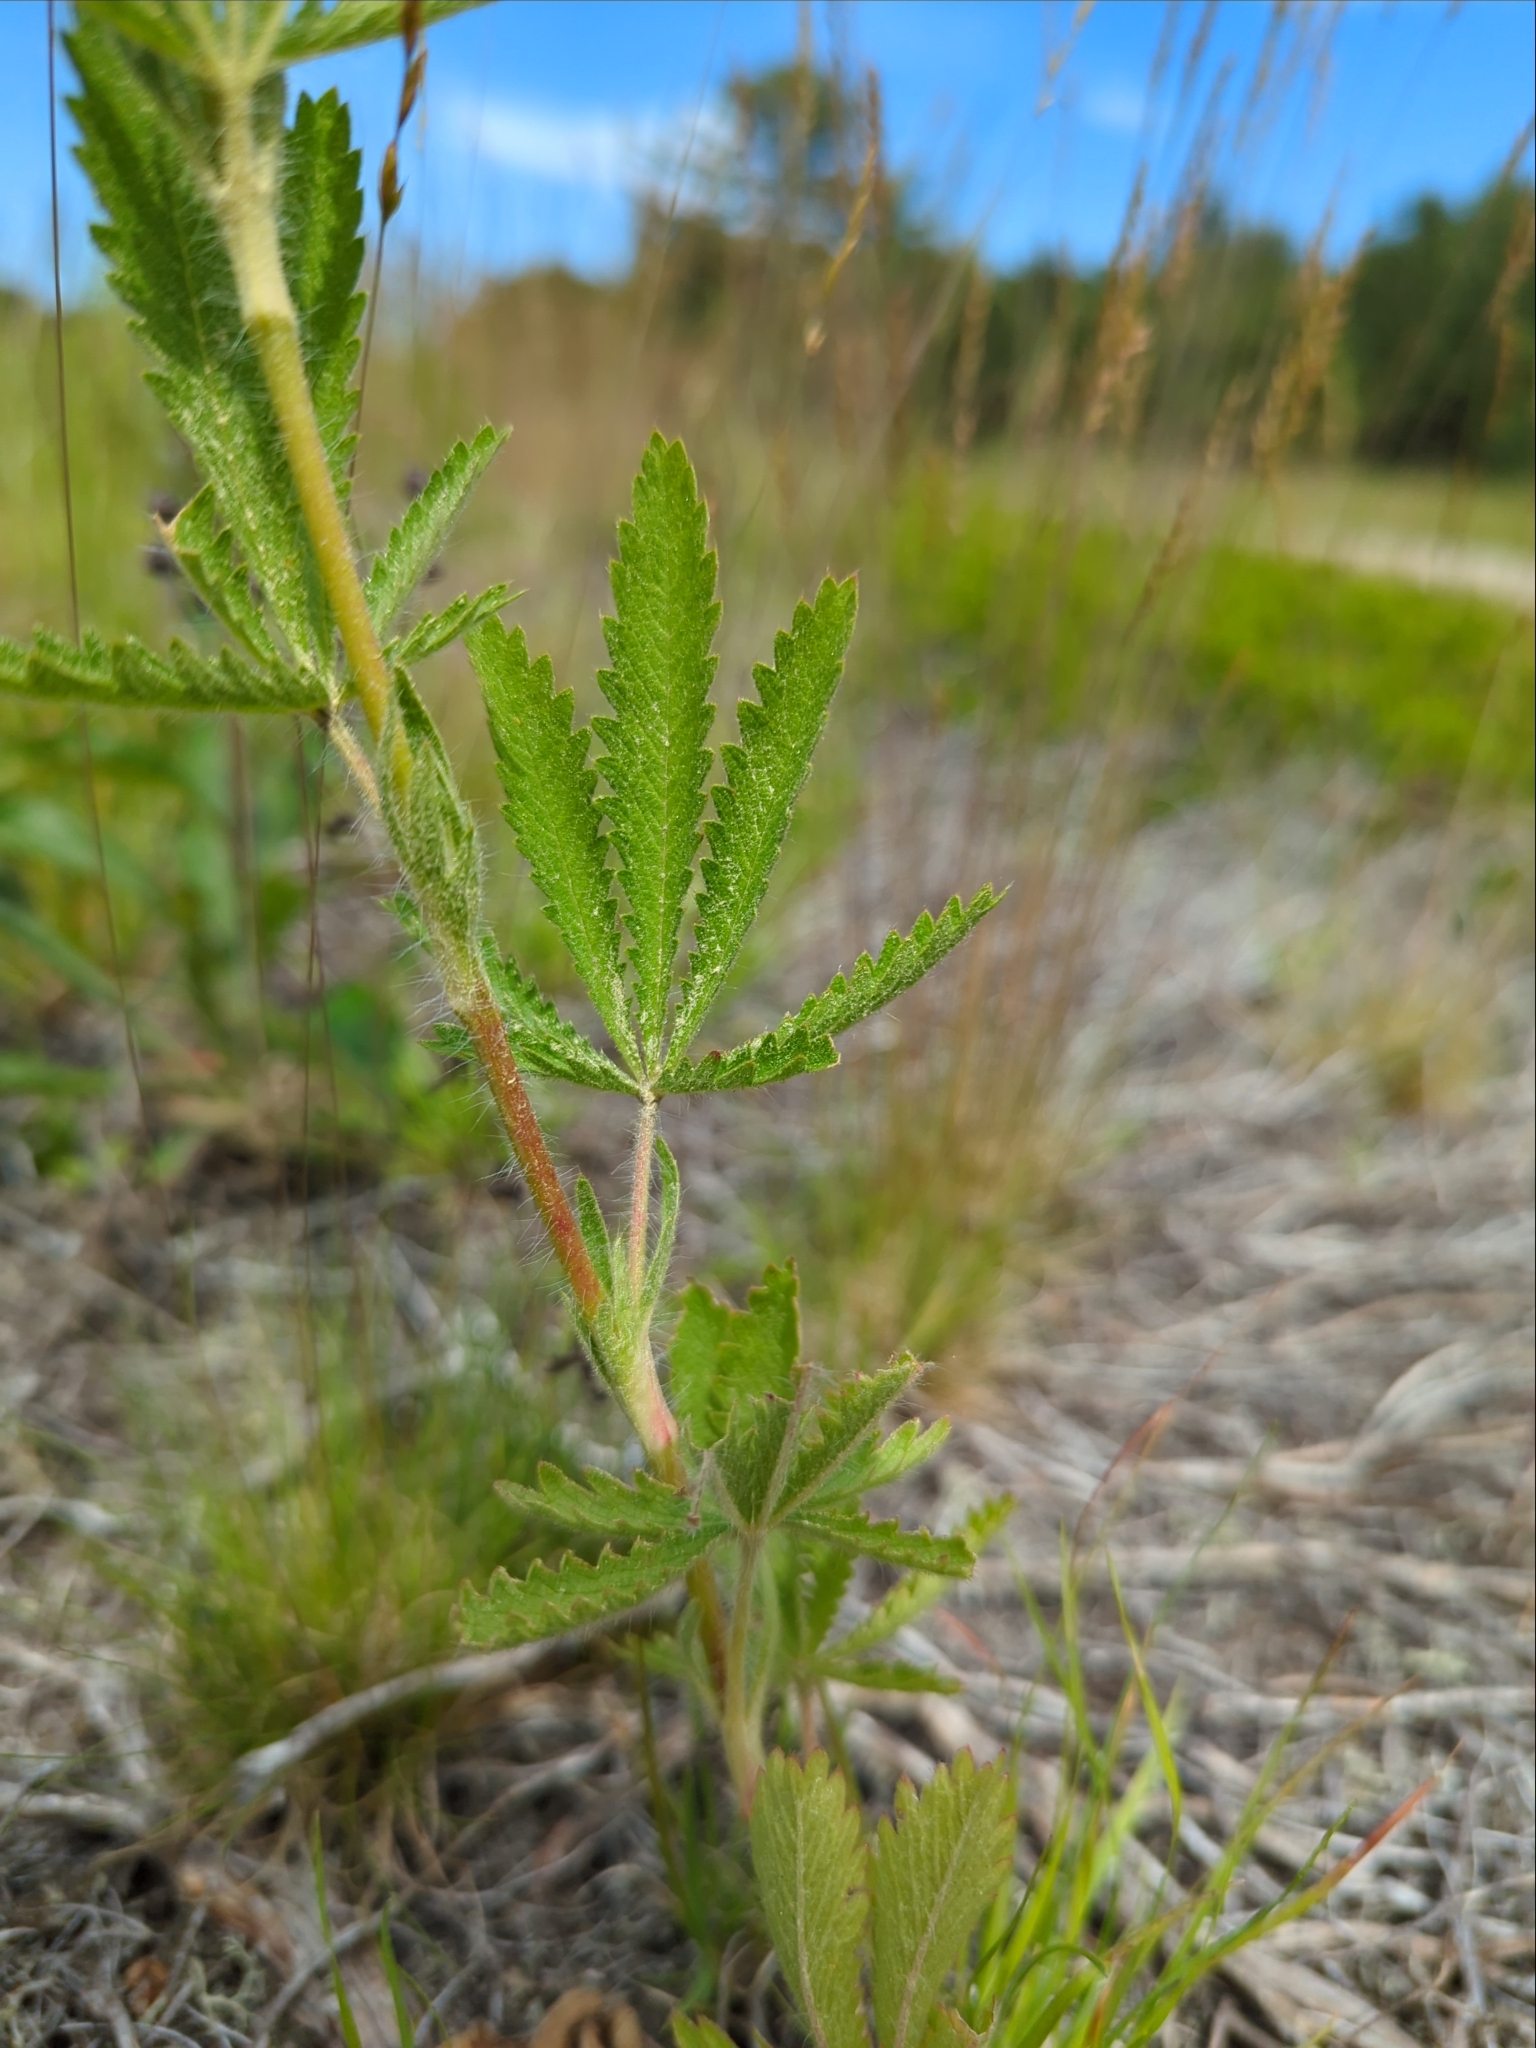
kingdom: Plantae
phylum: Tracheophyta
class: Magnoliopsida
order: Rosales
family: Rosaceae
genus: Potentilla
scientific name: Potentilla recta
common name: Sulphur cinquefoil
